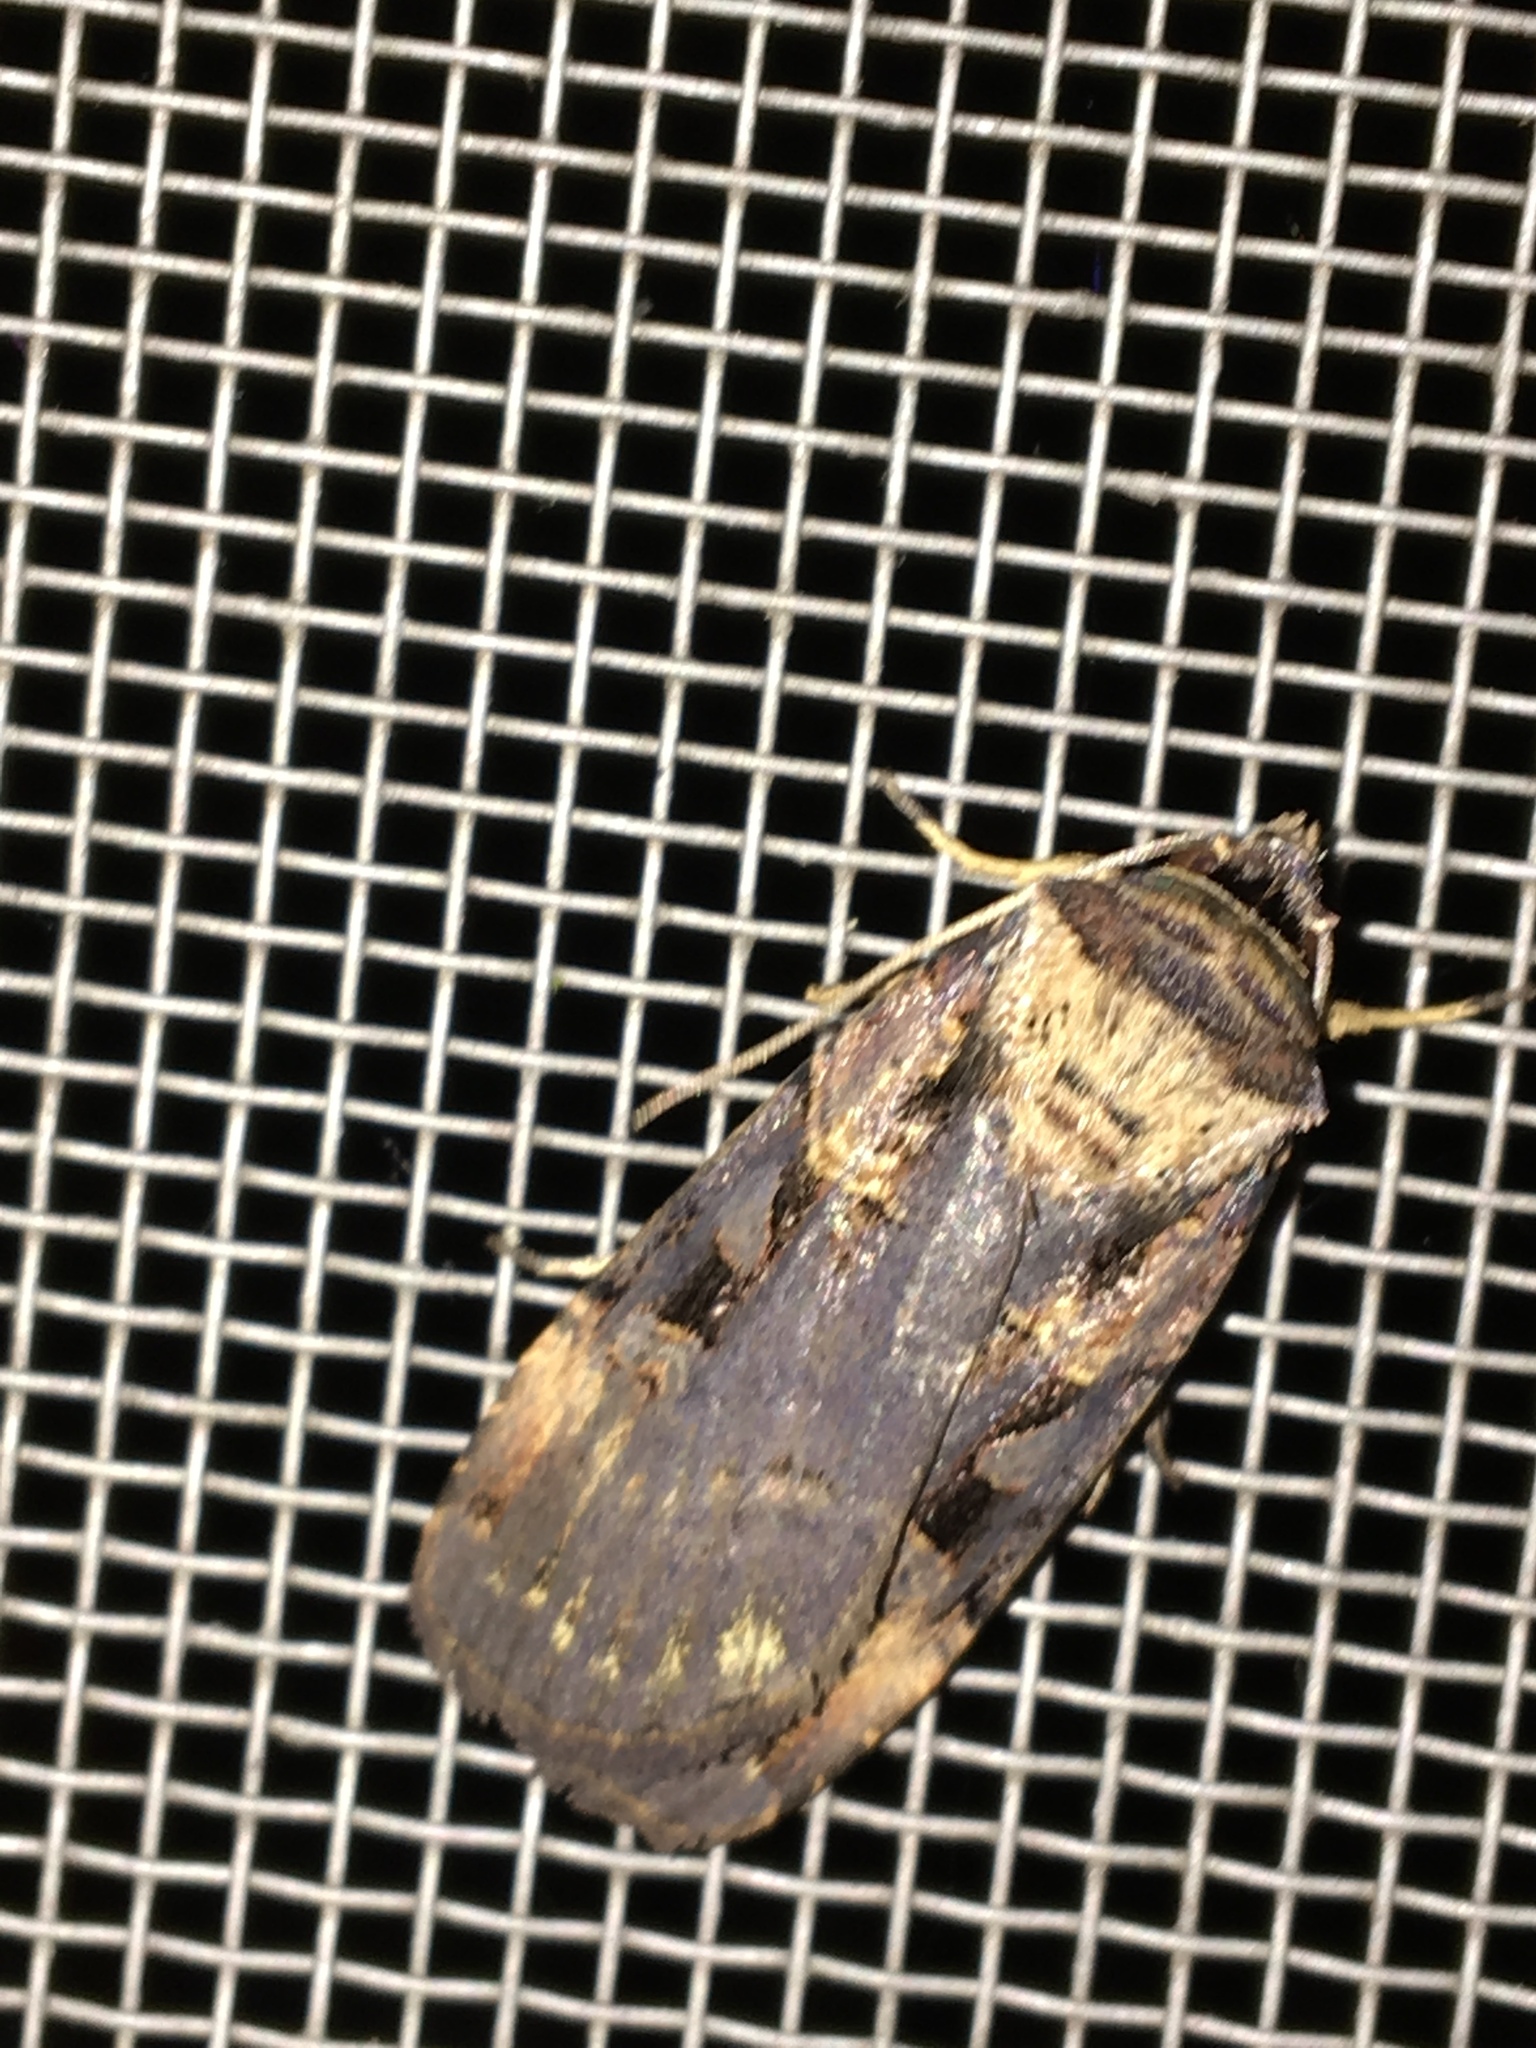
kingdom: Animalia
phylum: Arthropoda
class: Insecta
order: Lepidoptera
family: Noctuidae
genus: Pseudohermonassa
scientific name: Pseudohermonassa bicarnea
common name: Pink spotted dart
